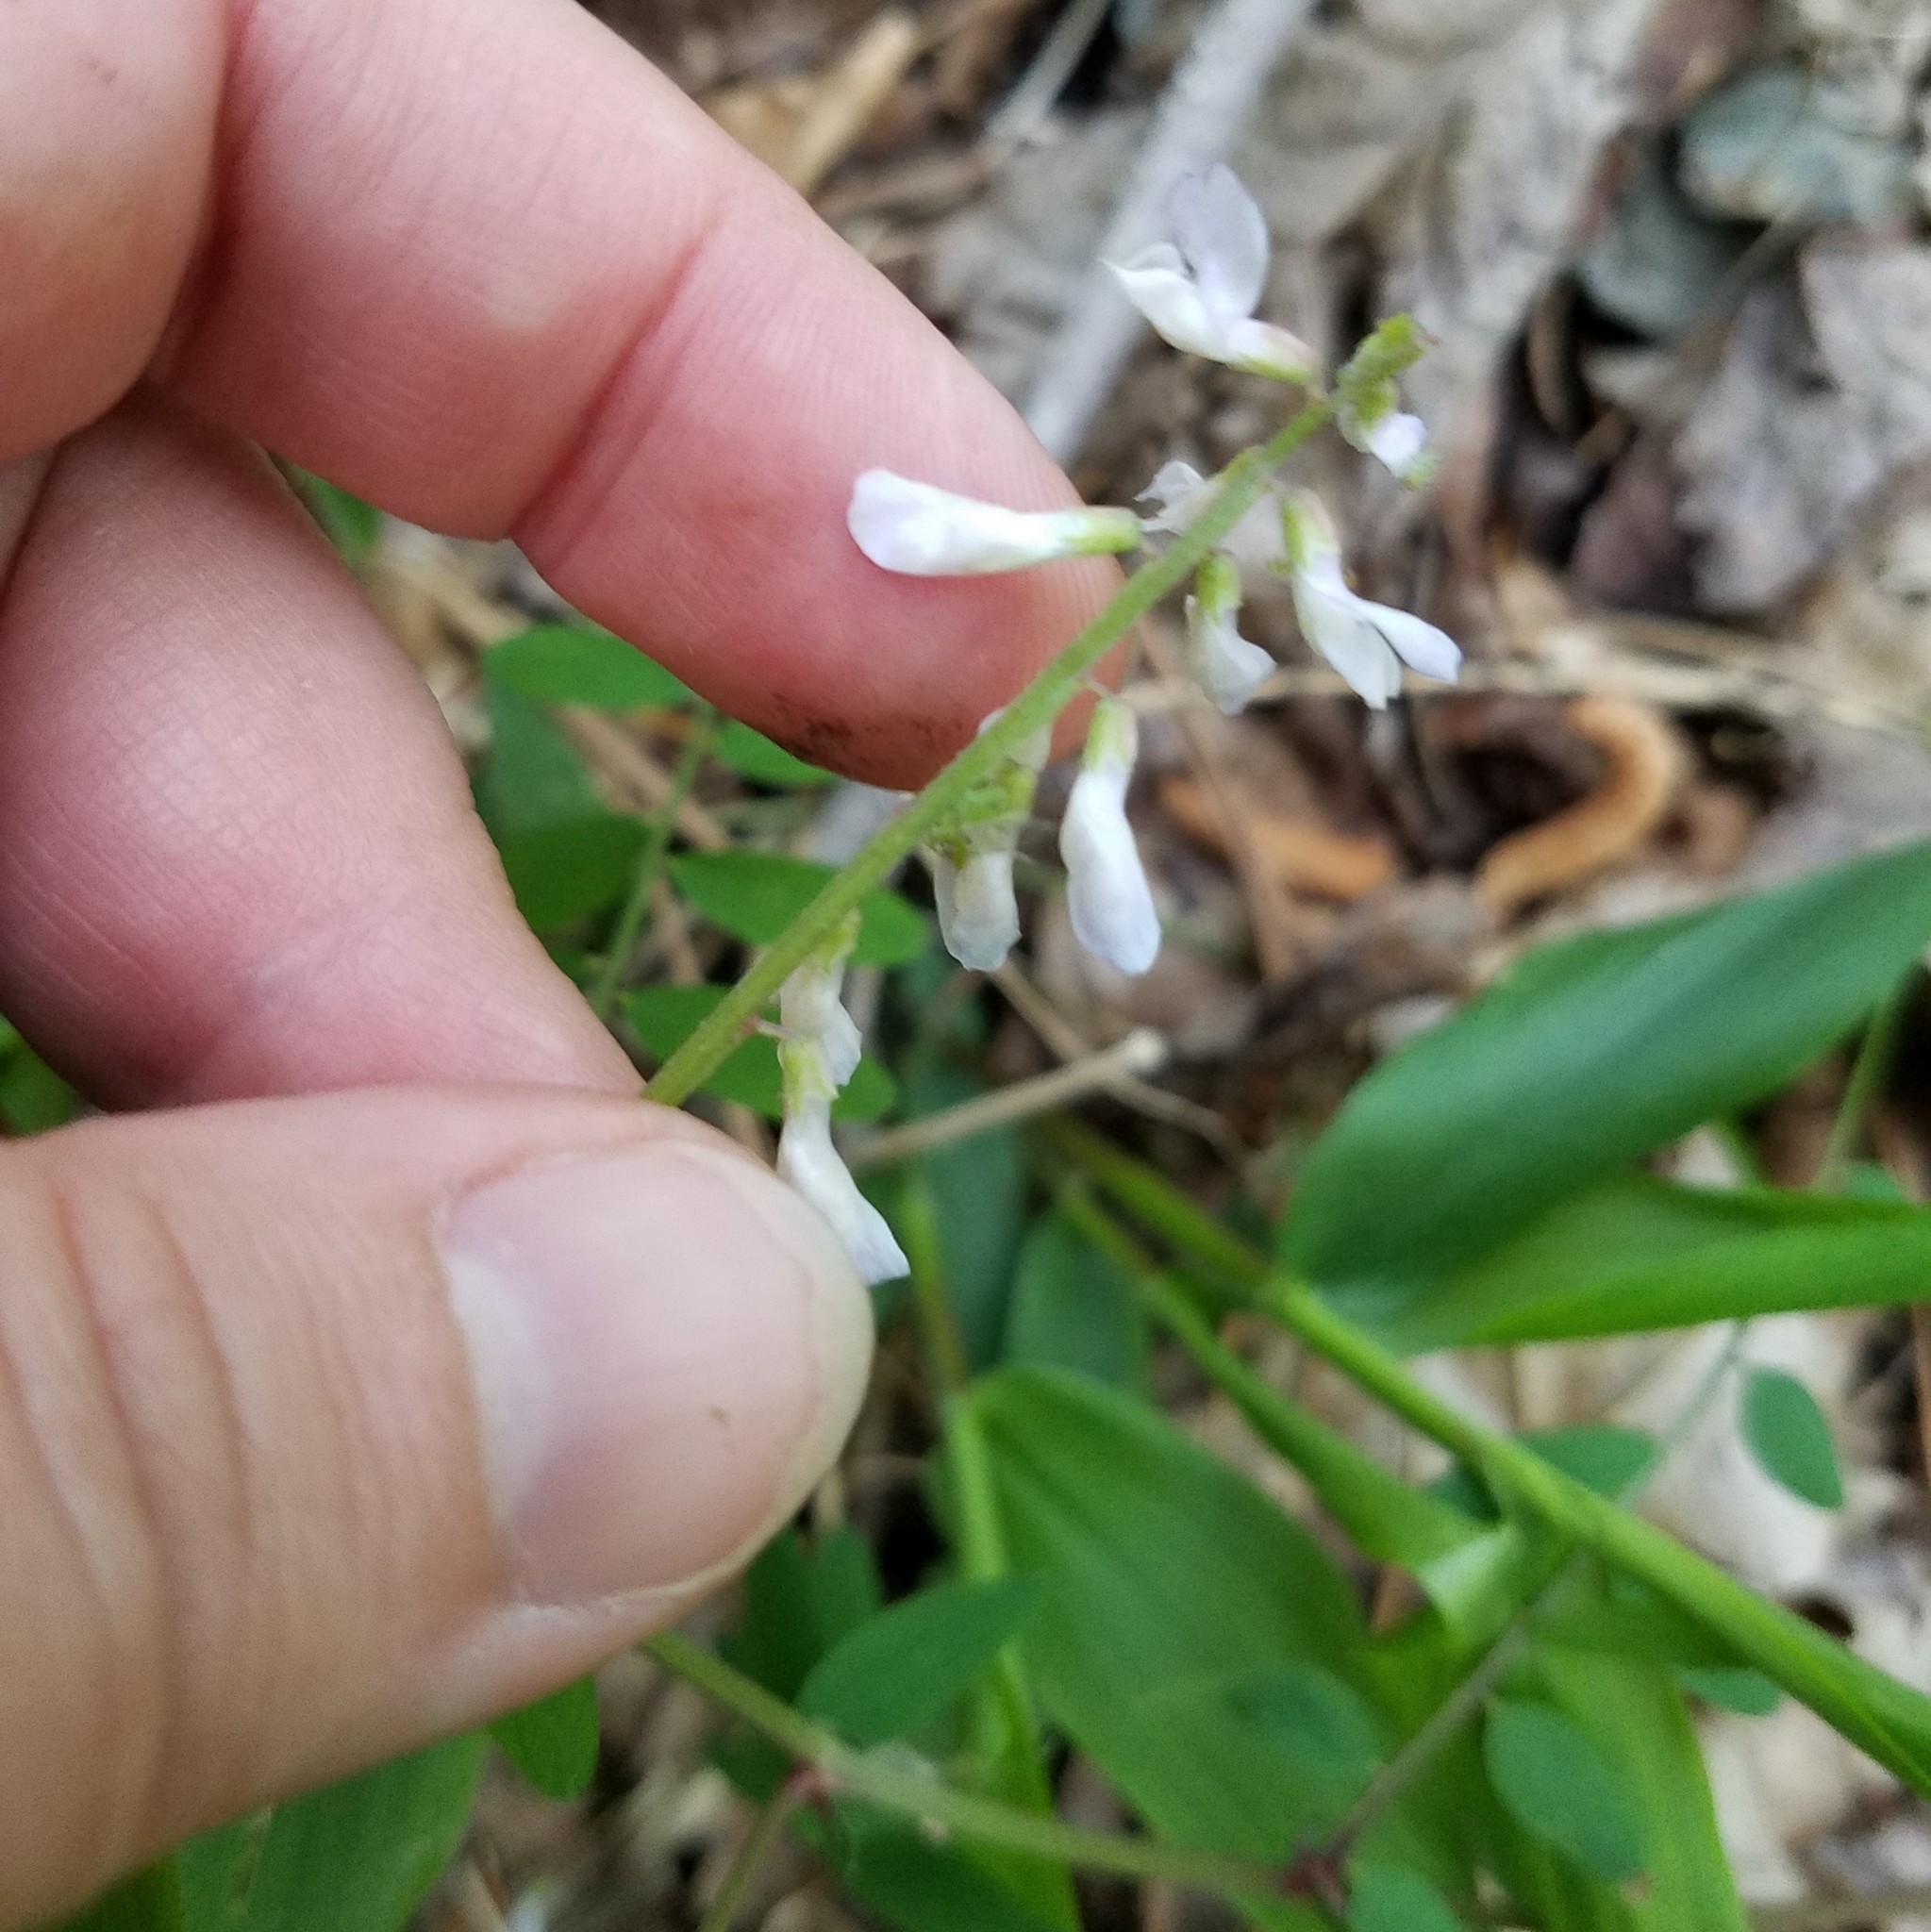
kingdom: Plantae
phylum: Tracheophyta
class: Magnoliopsida
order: Fabales
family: Fabaceae
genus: Vicia
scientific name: Vicia caroliniana
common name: Carolina vetch
